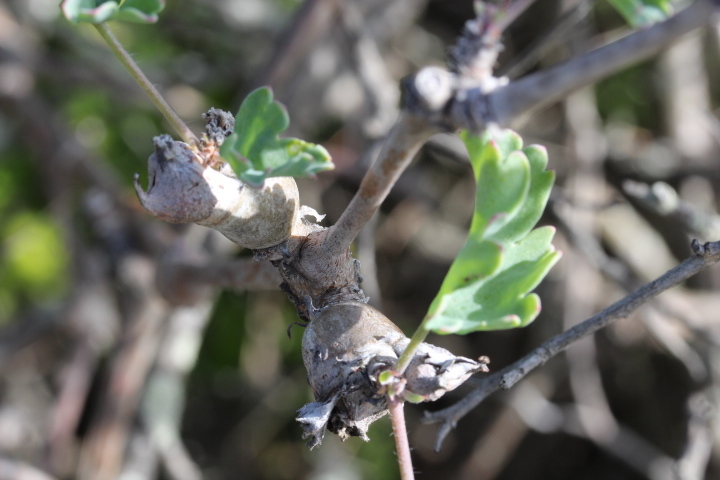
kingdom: Plantae
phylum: Tracheophyta
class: Magnoliopsida
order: Geraniales
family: Geraniaceae
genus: Pelargonium
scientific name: Pelargonium gibbosum
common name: Gouty geranium
